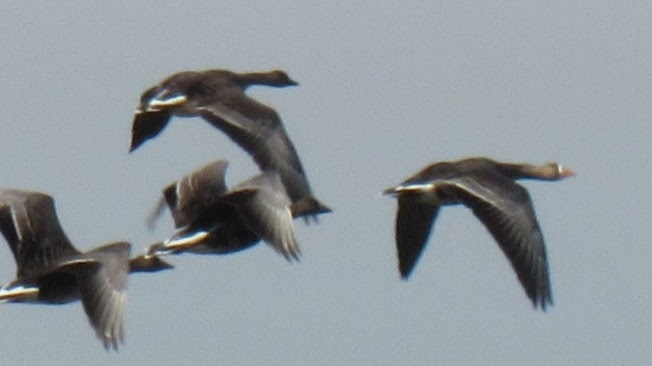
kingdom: Animalia
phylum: Chordata
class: Aves
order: Anseriformes
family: Anatidae
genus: Anser
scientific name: Anser albifrons
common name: Greater white-fronted goose
